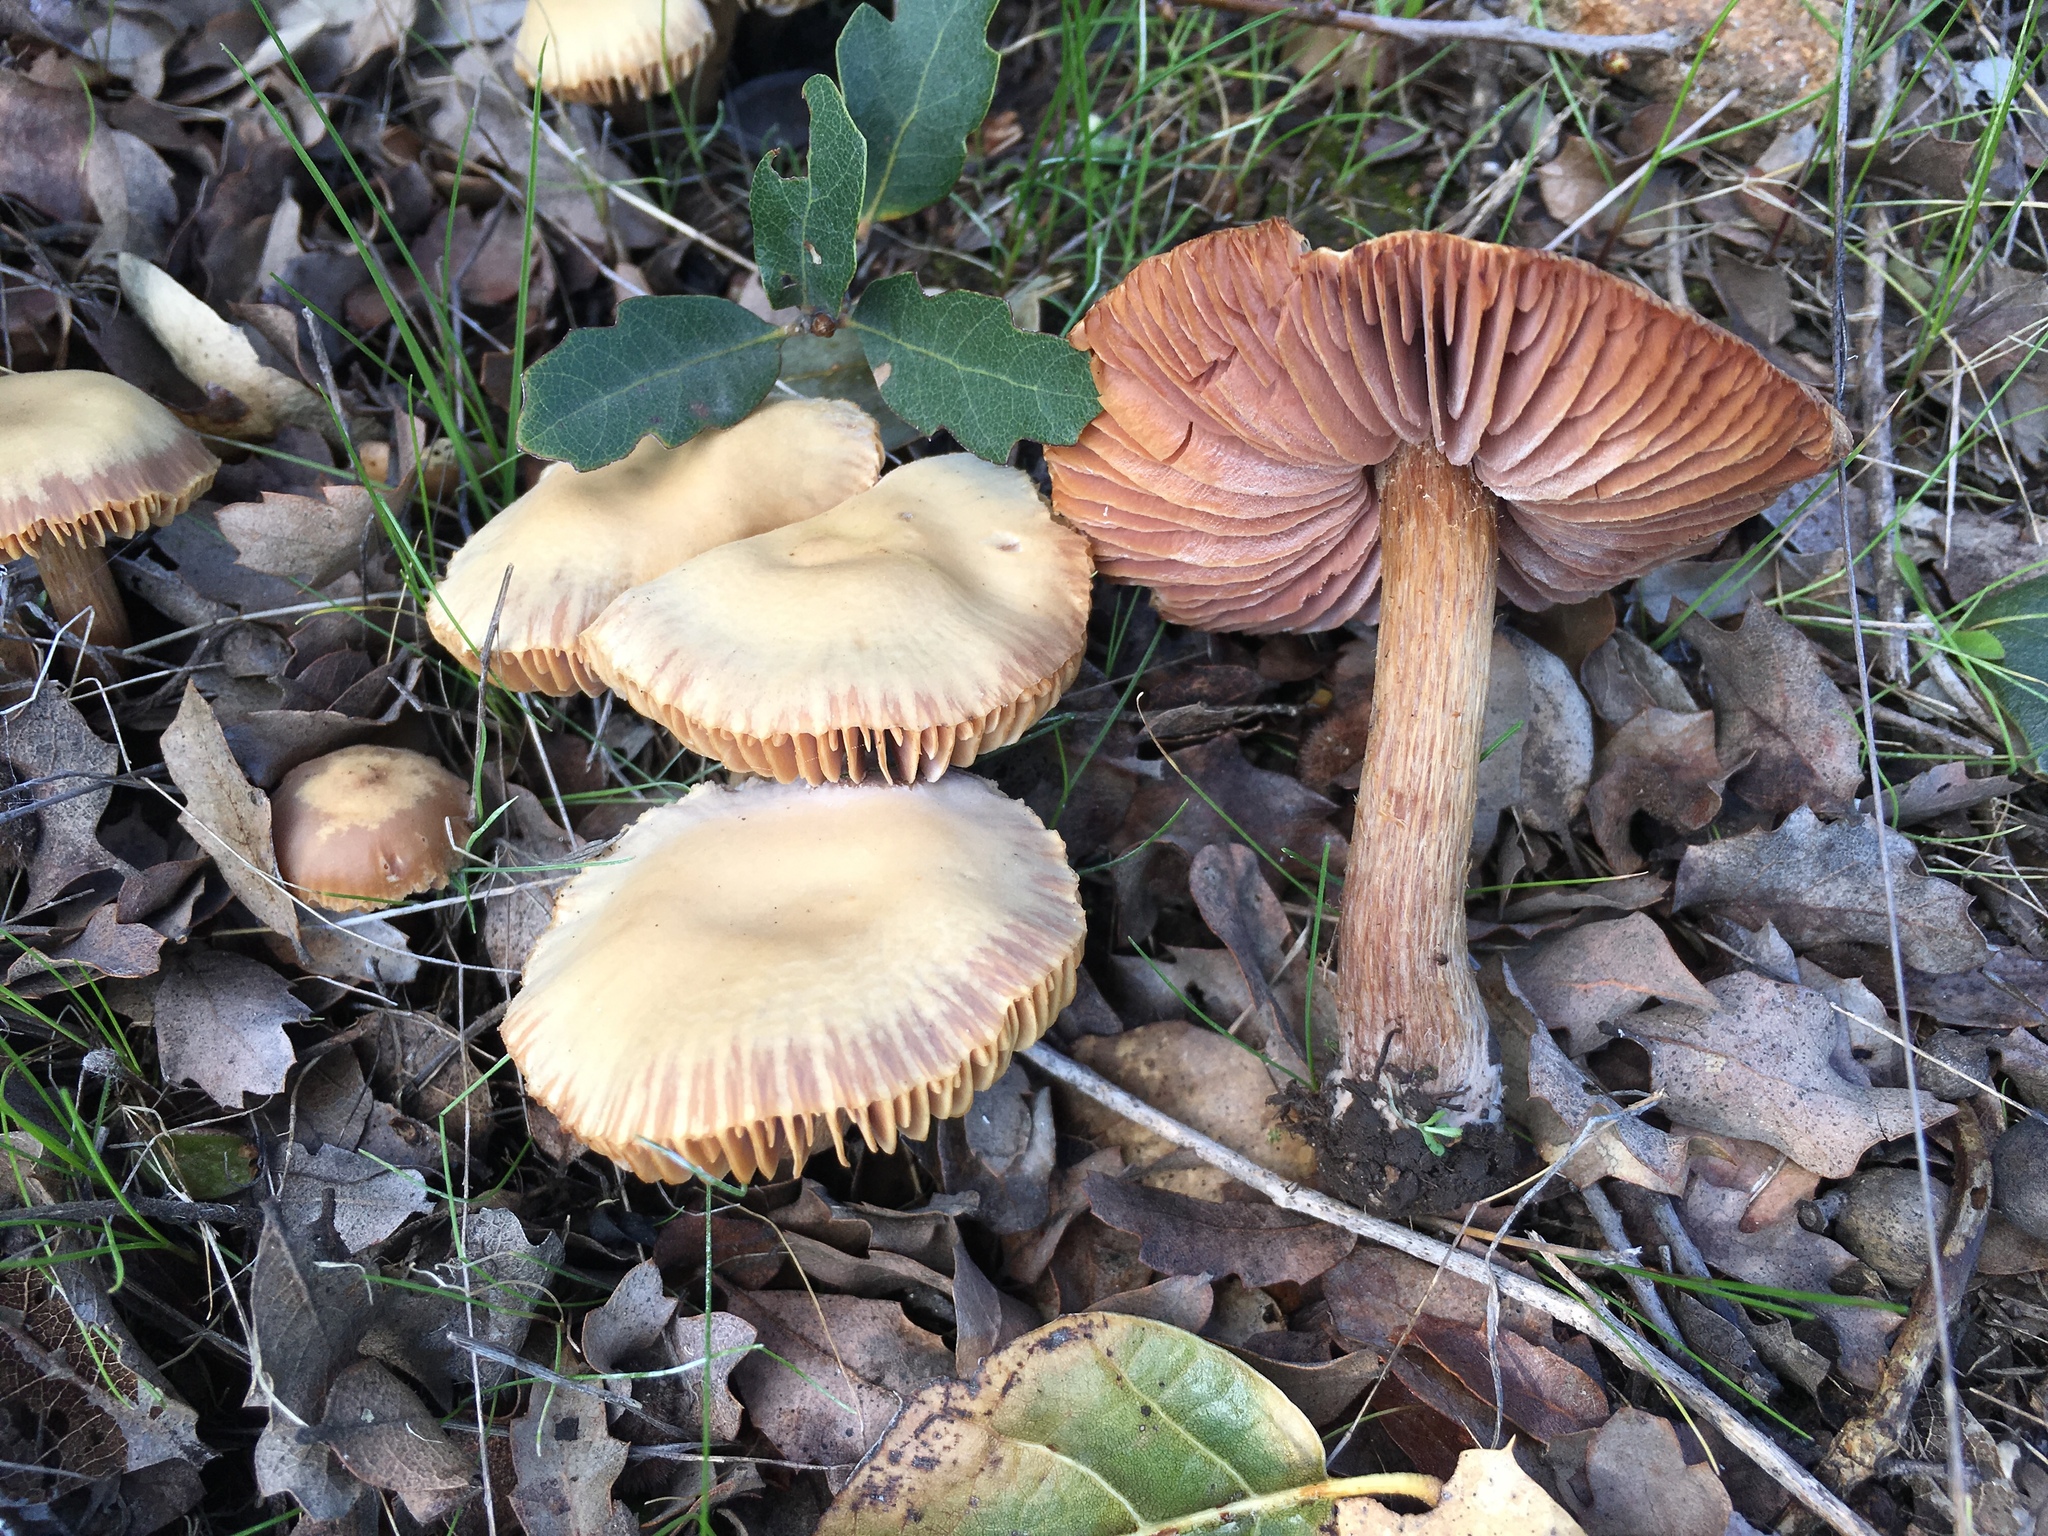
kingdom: Fungi
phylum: Basidiomycota
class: Agaricomycetes
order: Agaricales
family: Hydnangiaceae
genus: Laccaria
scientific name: Laccaria amethysteo-occidentalis
